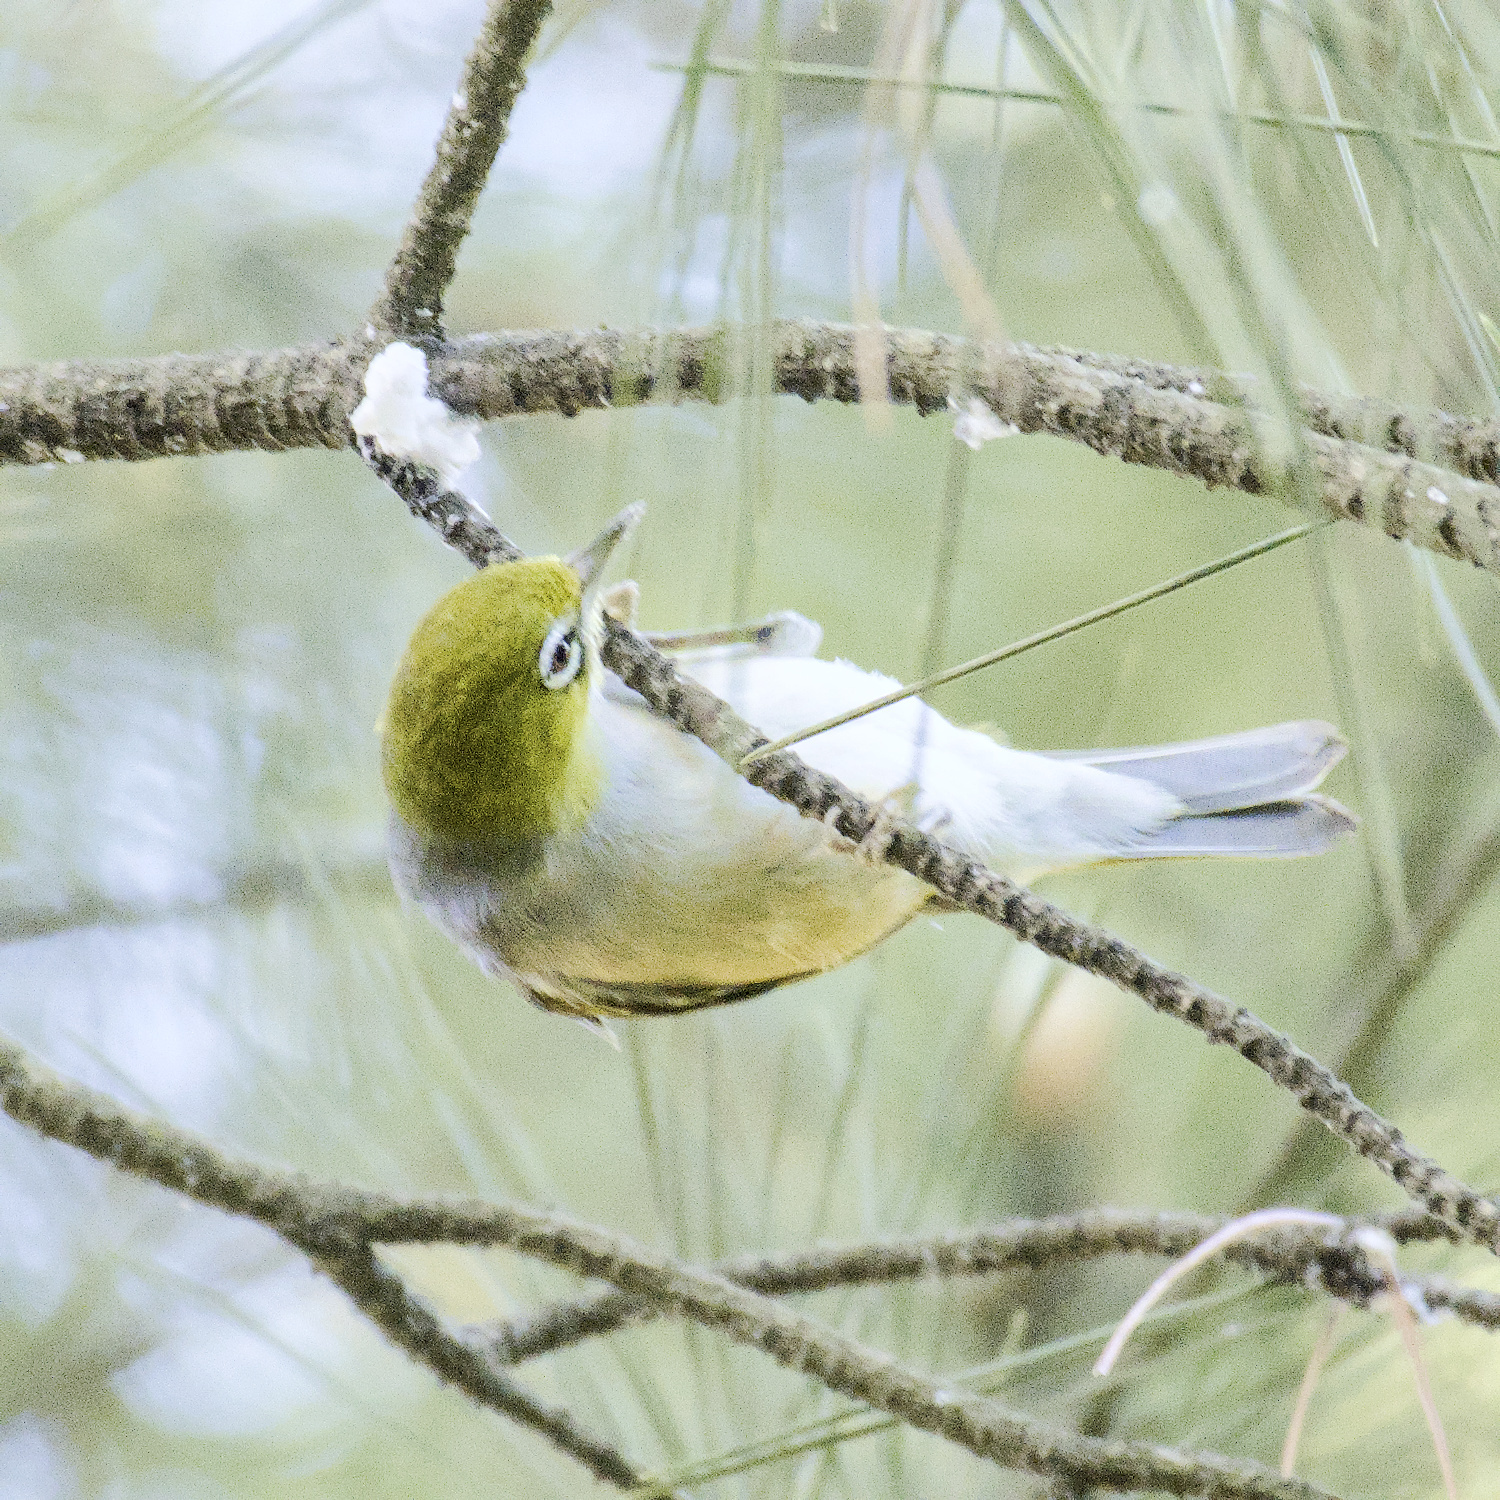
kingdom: Animalia
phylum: Chordata
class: Aves
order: Passeriformes
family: Zosteropidae
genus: Zosterops
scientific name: Zosterops lateralis
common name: Silvereye
